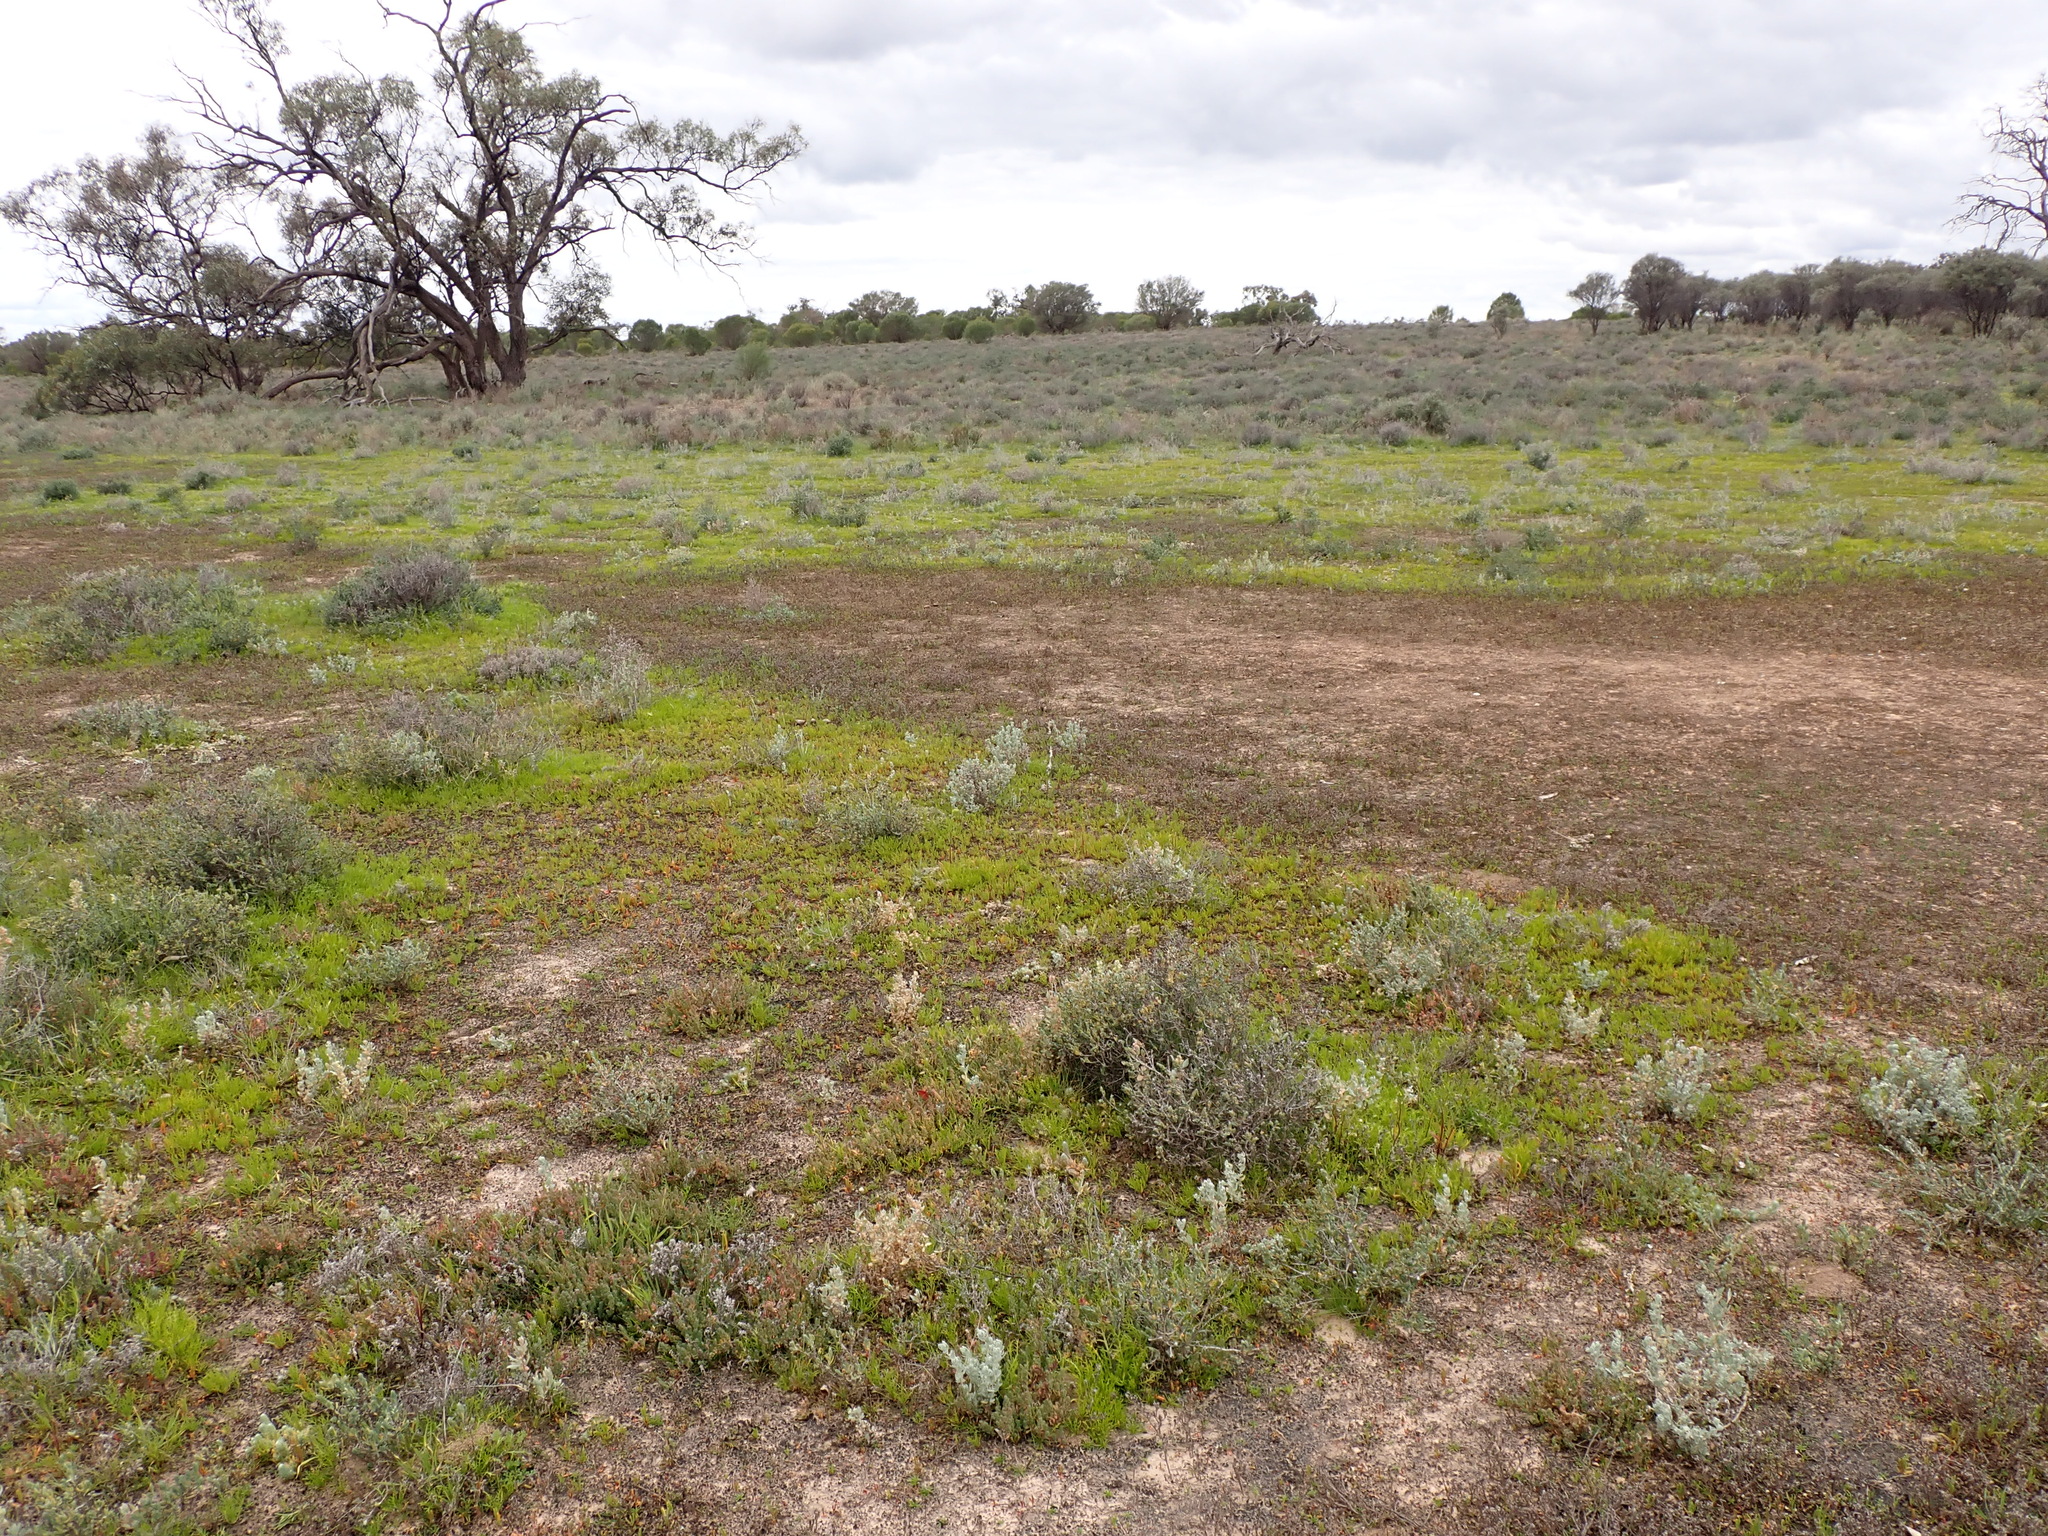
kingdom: Plantae
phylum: Tracheophyta
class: Magnoliopsida
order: Asterales
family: Asteraceae
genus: Pogonolepis
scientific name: Pogonolepis muelleriana
